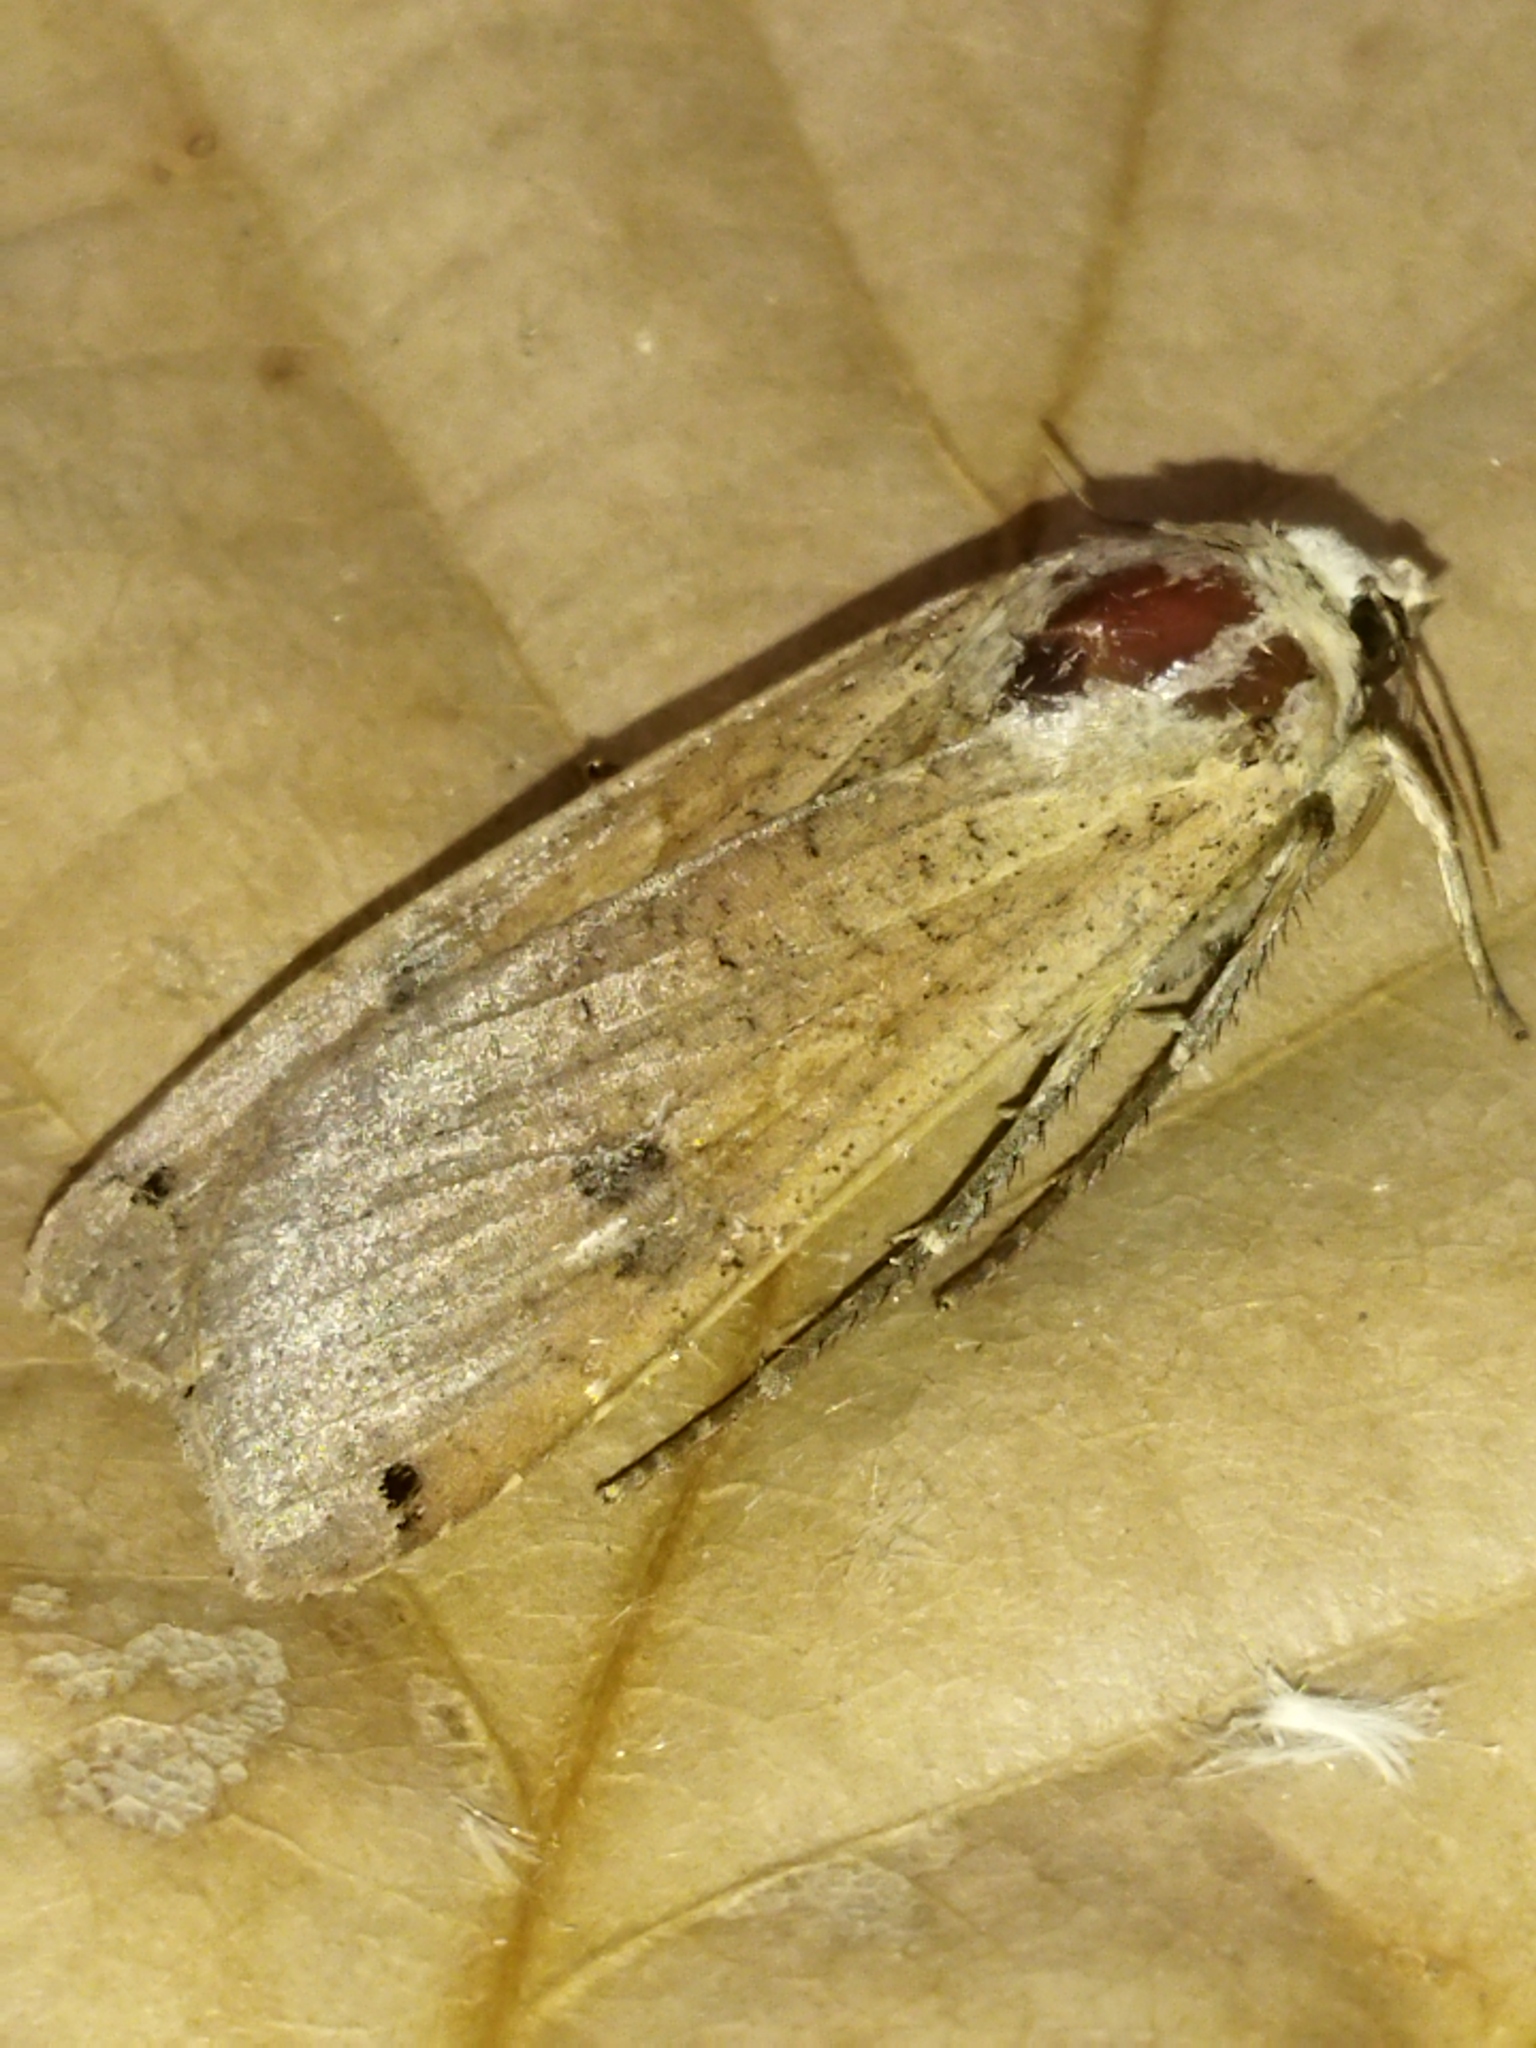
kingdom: Animalia
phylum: Arthropoda
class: Insecta
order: Lepidoptera
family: Noctuidae
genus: Noctua
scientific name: Noctua pronuba
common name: Large yellow underwing
